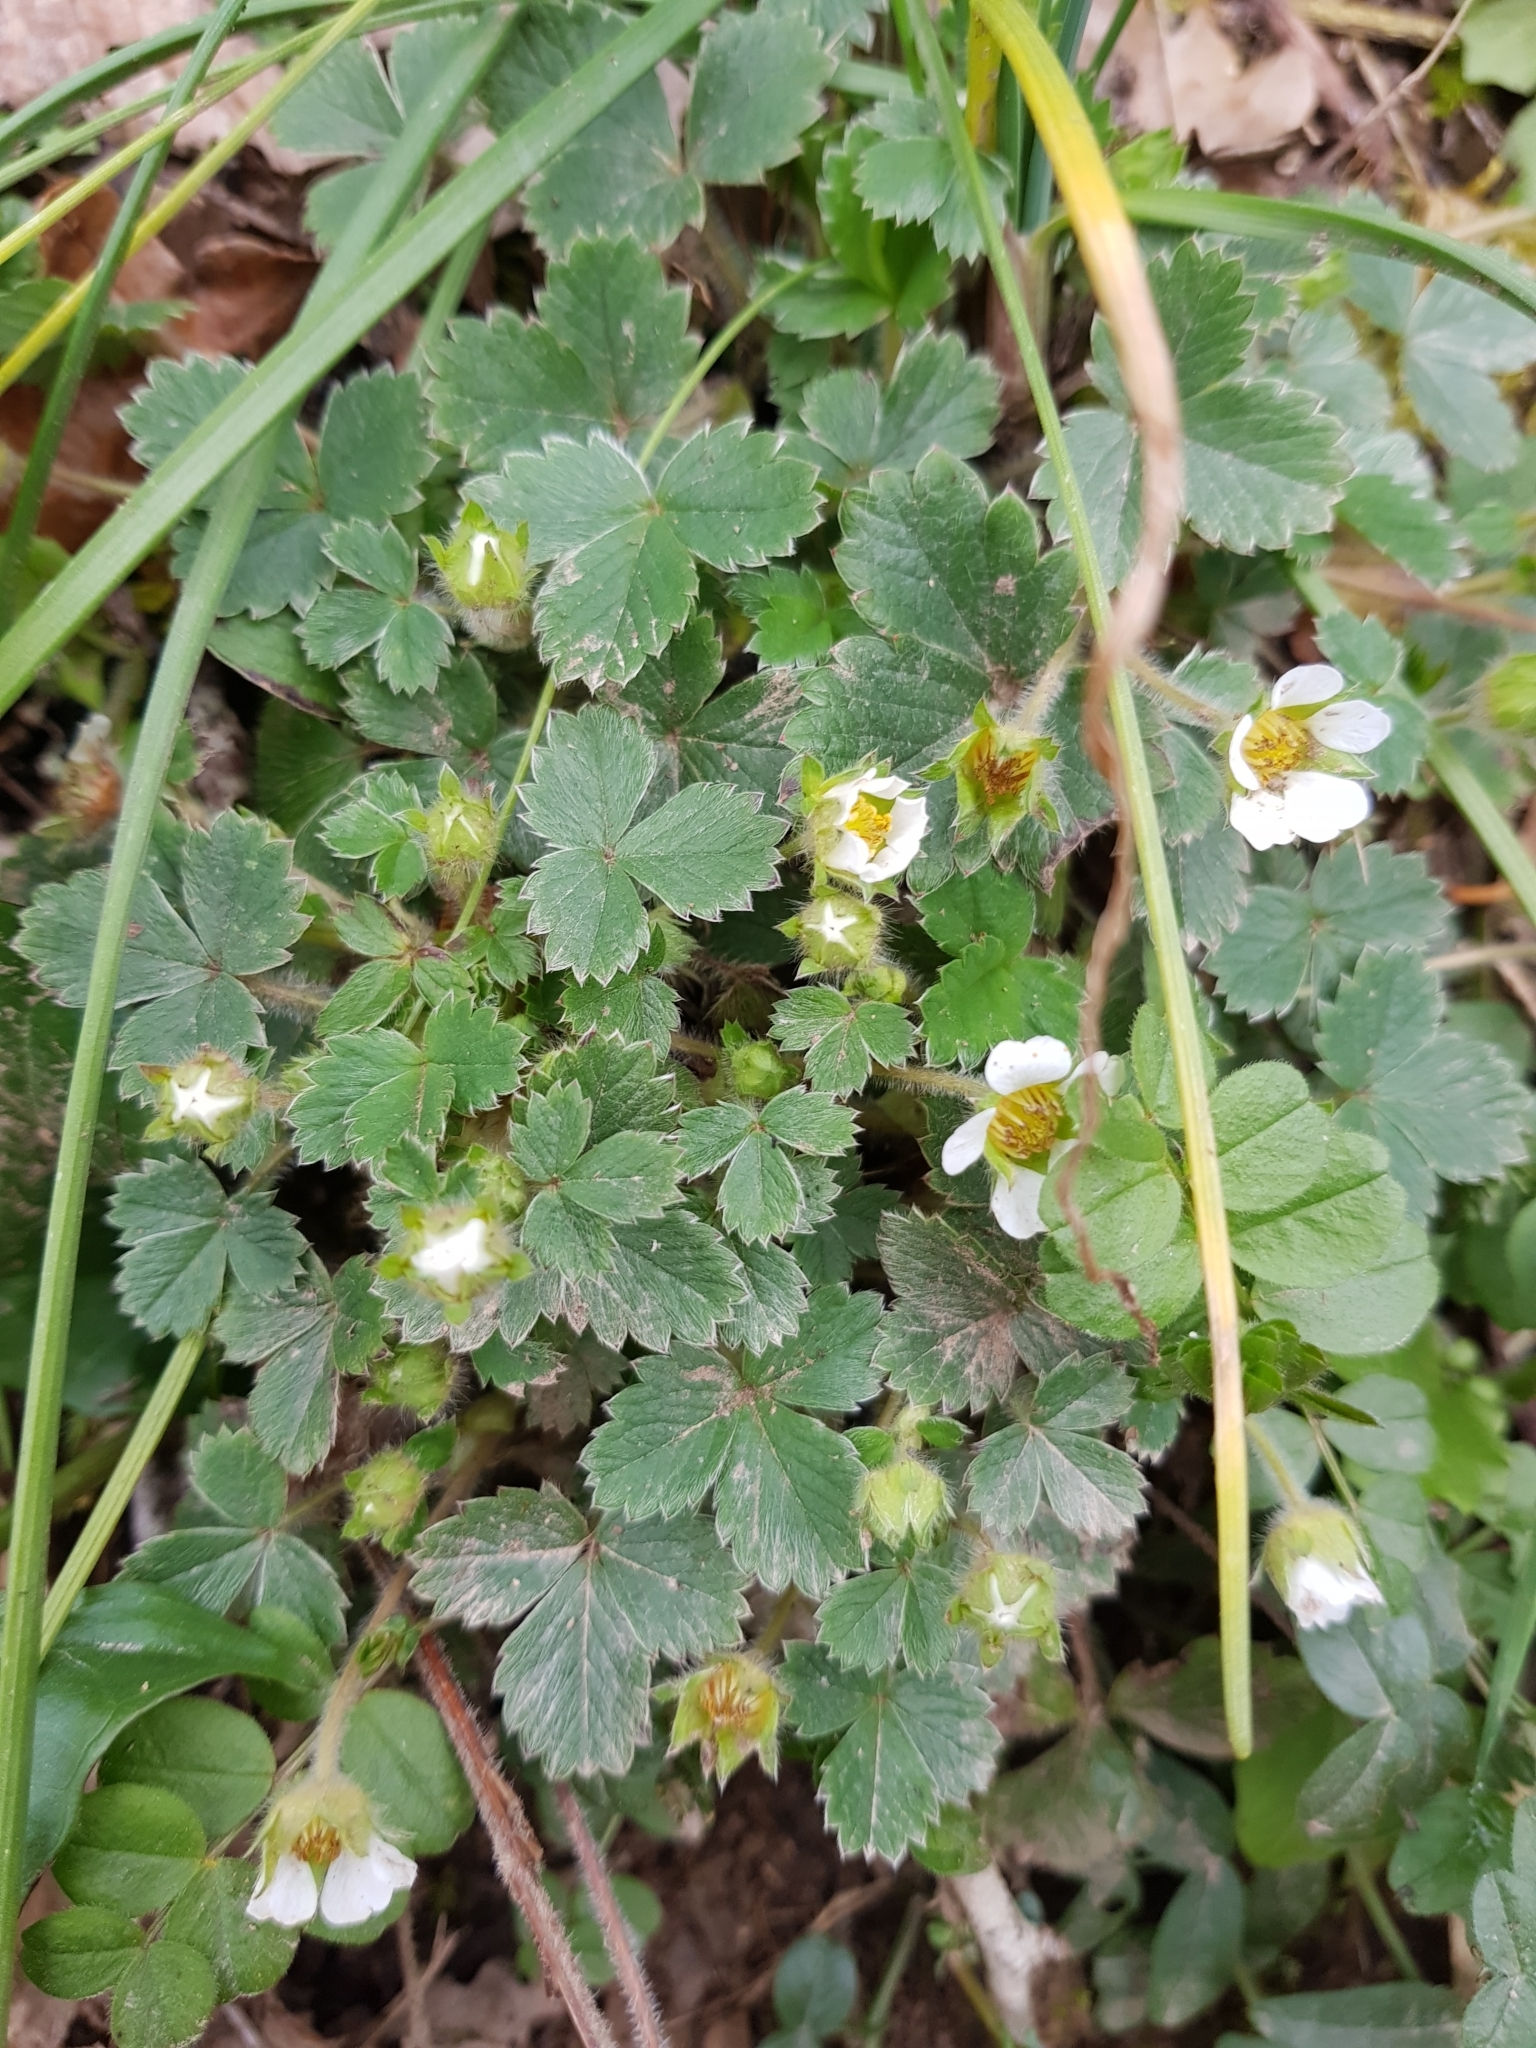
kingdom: Plantae
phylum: Tracheophyta
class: Magnoliopsida
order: Rosales
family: Rosaceae
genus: Potentilla
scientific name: Potentilla sterilis
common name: Barren strawberry
